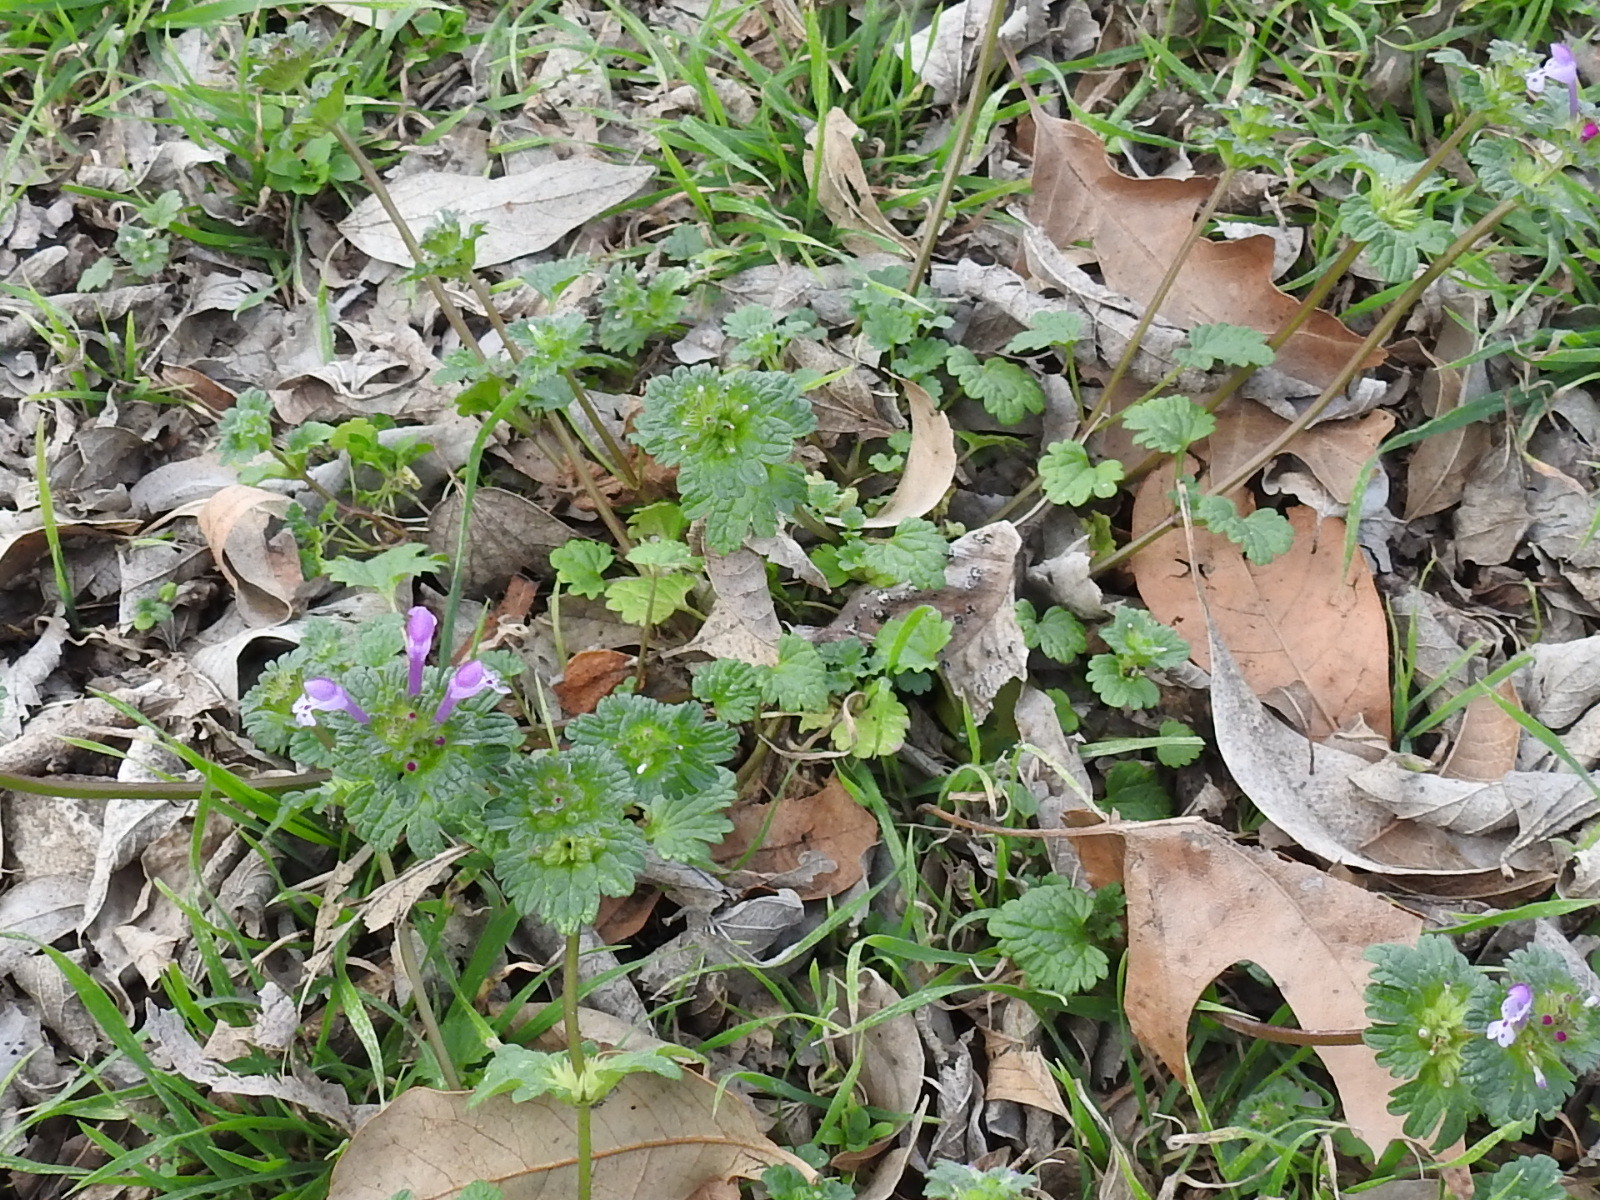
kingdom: Plantae
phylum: Tracheophyta
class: Magnoliopsida
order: Lamiales
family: Lamiaceae
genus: Lamium
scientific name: Lamium amplexicaule
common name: Henbit dead-nettle
